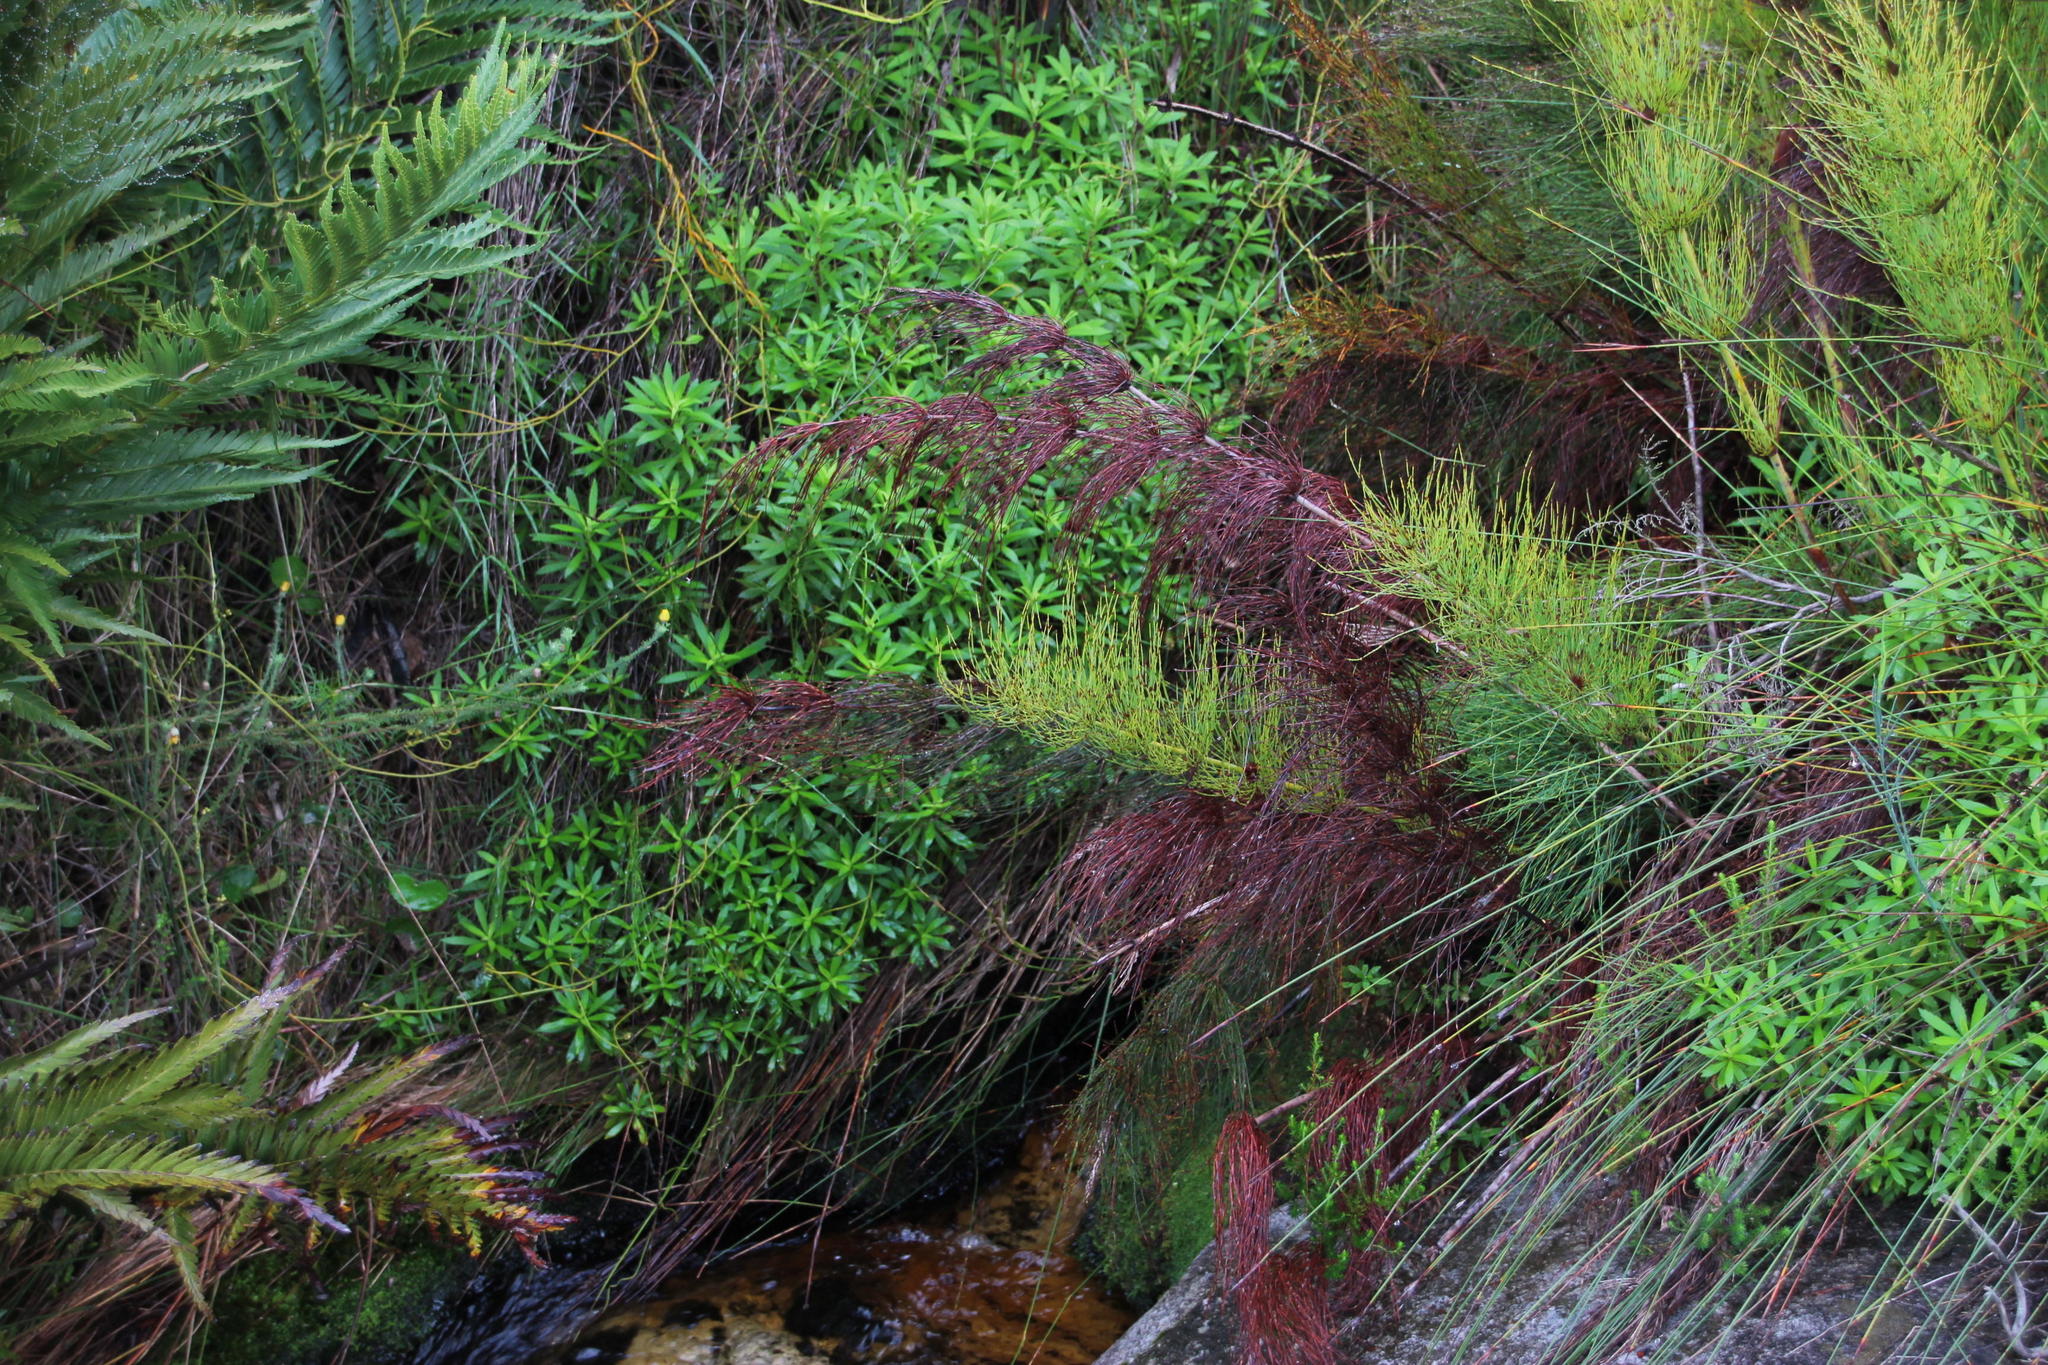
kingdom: Plantae
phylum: Tracheophyta
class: Magnoliopsida
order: Asterales
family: Asteraceae
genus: Osmitopsis
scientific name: Osmitopsis osmitoides
